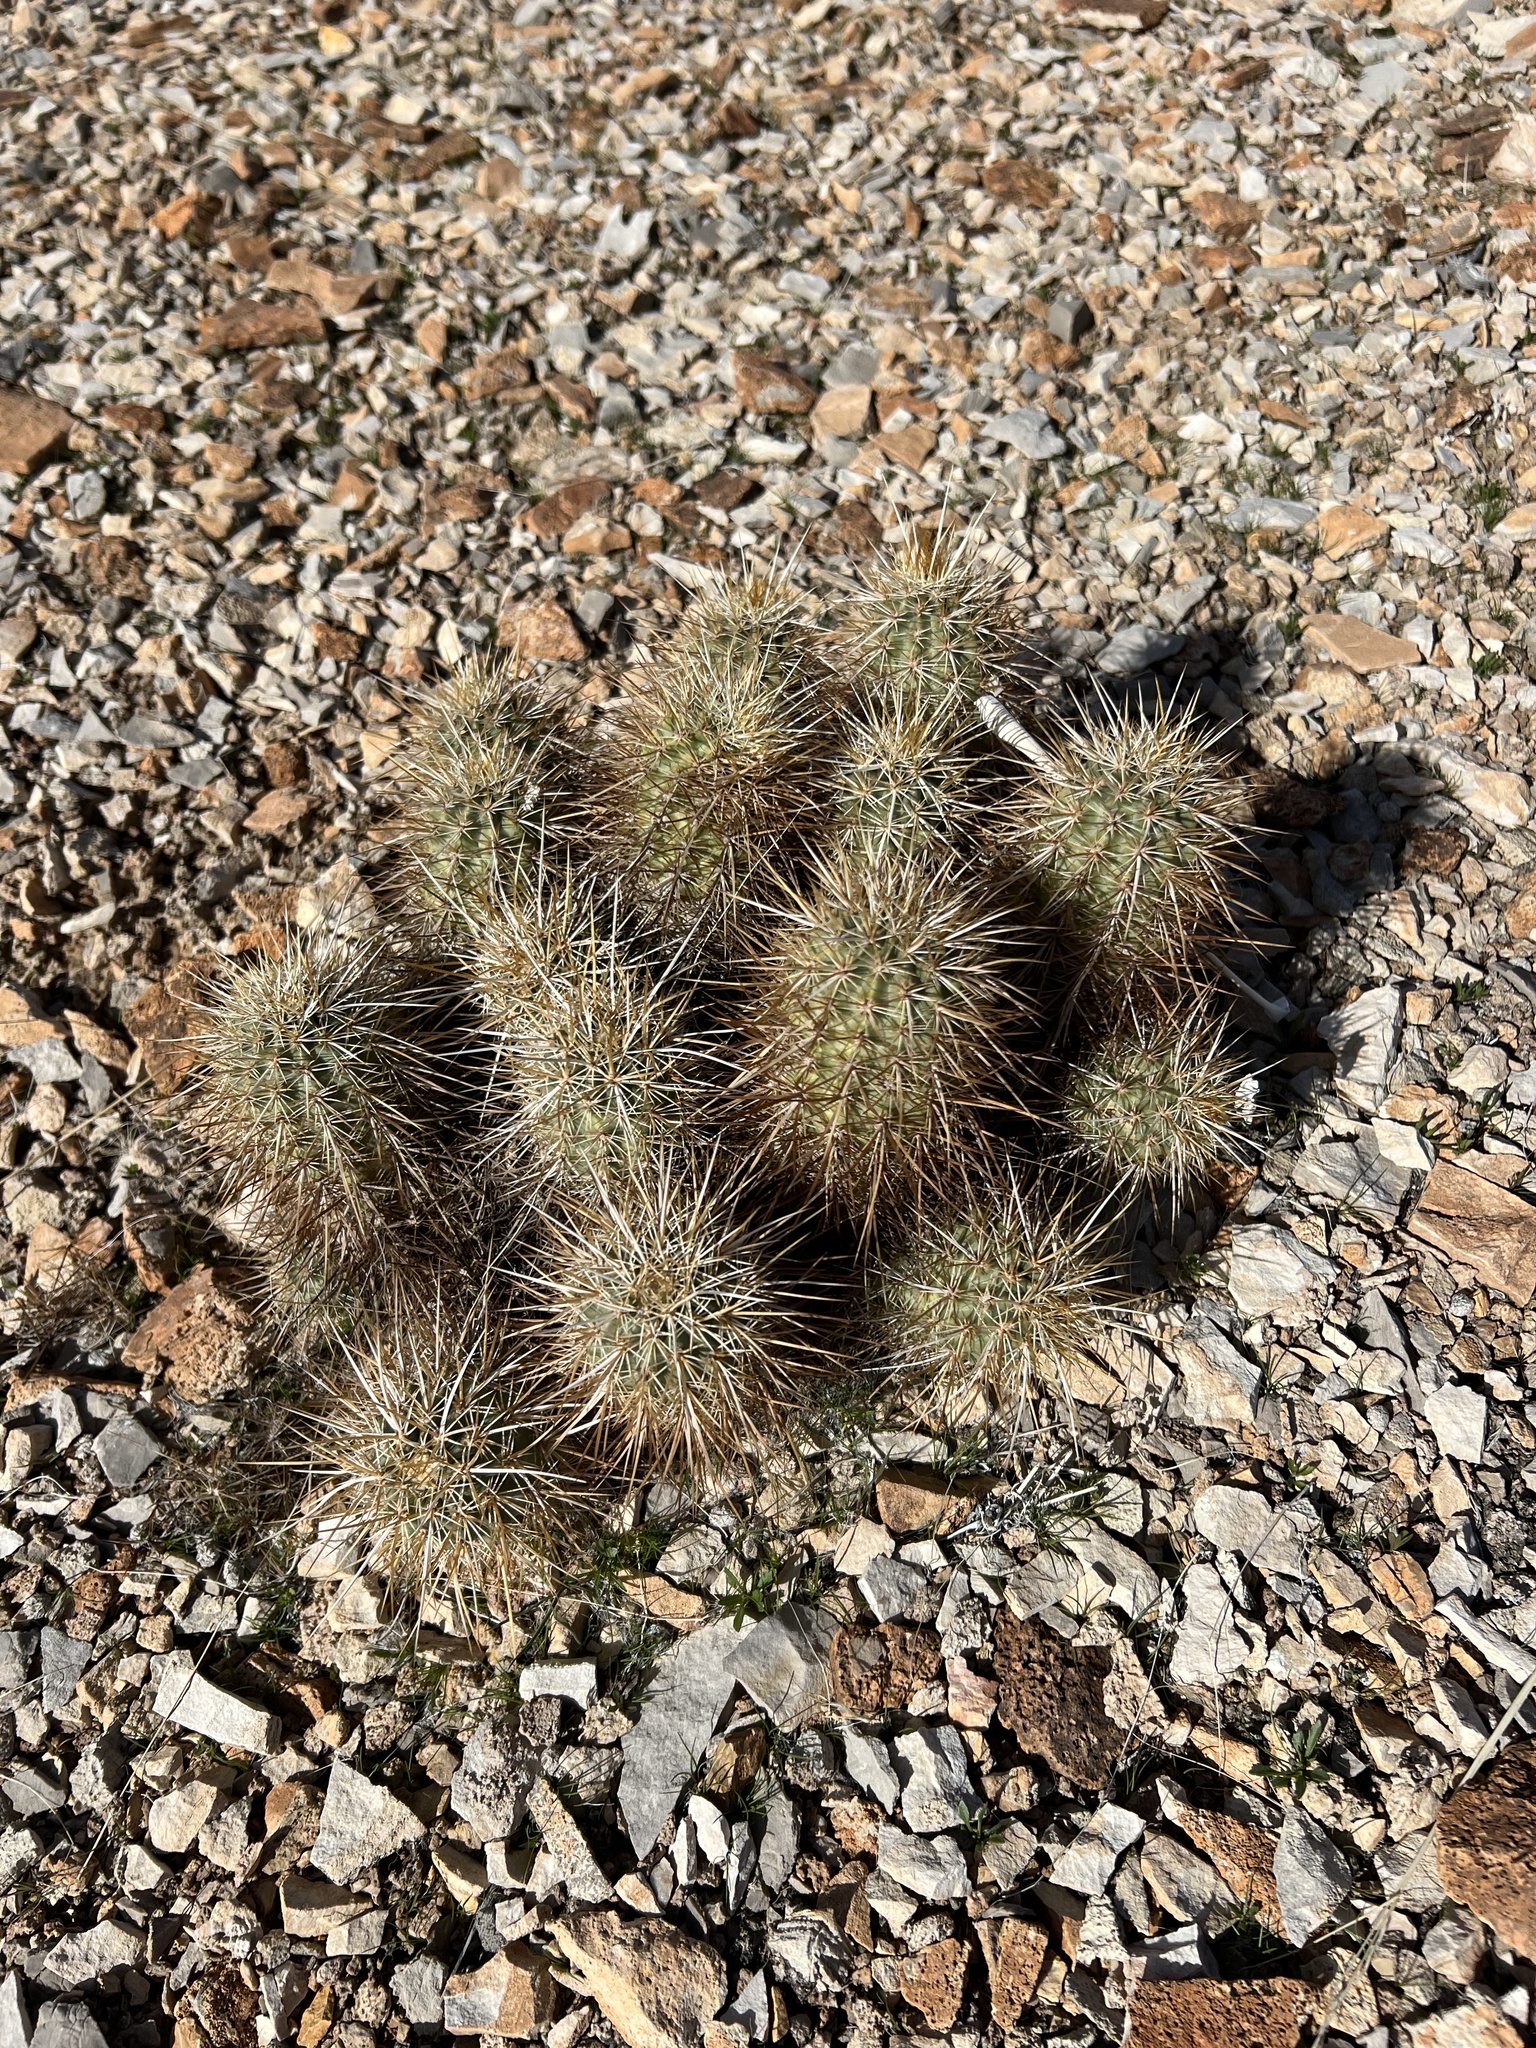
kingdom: Plantae
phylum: Tracheophyta
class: Magnoliopsida
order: Caryophyllales
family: Cactaceae
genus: Echinocereus
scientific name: Echinocereus engelmannii
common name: Engelmann's hedgehog cactus
